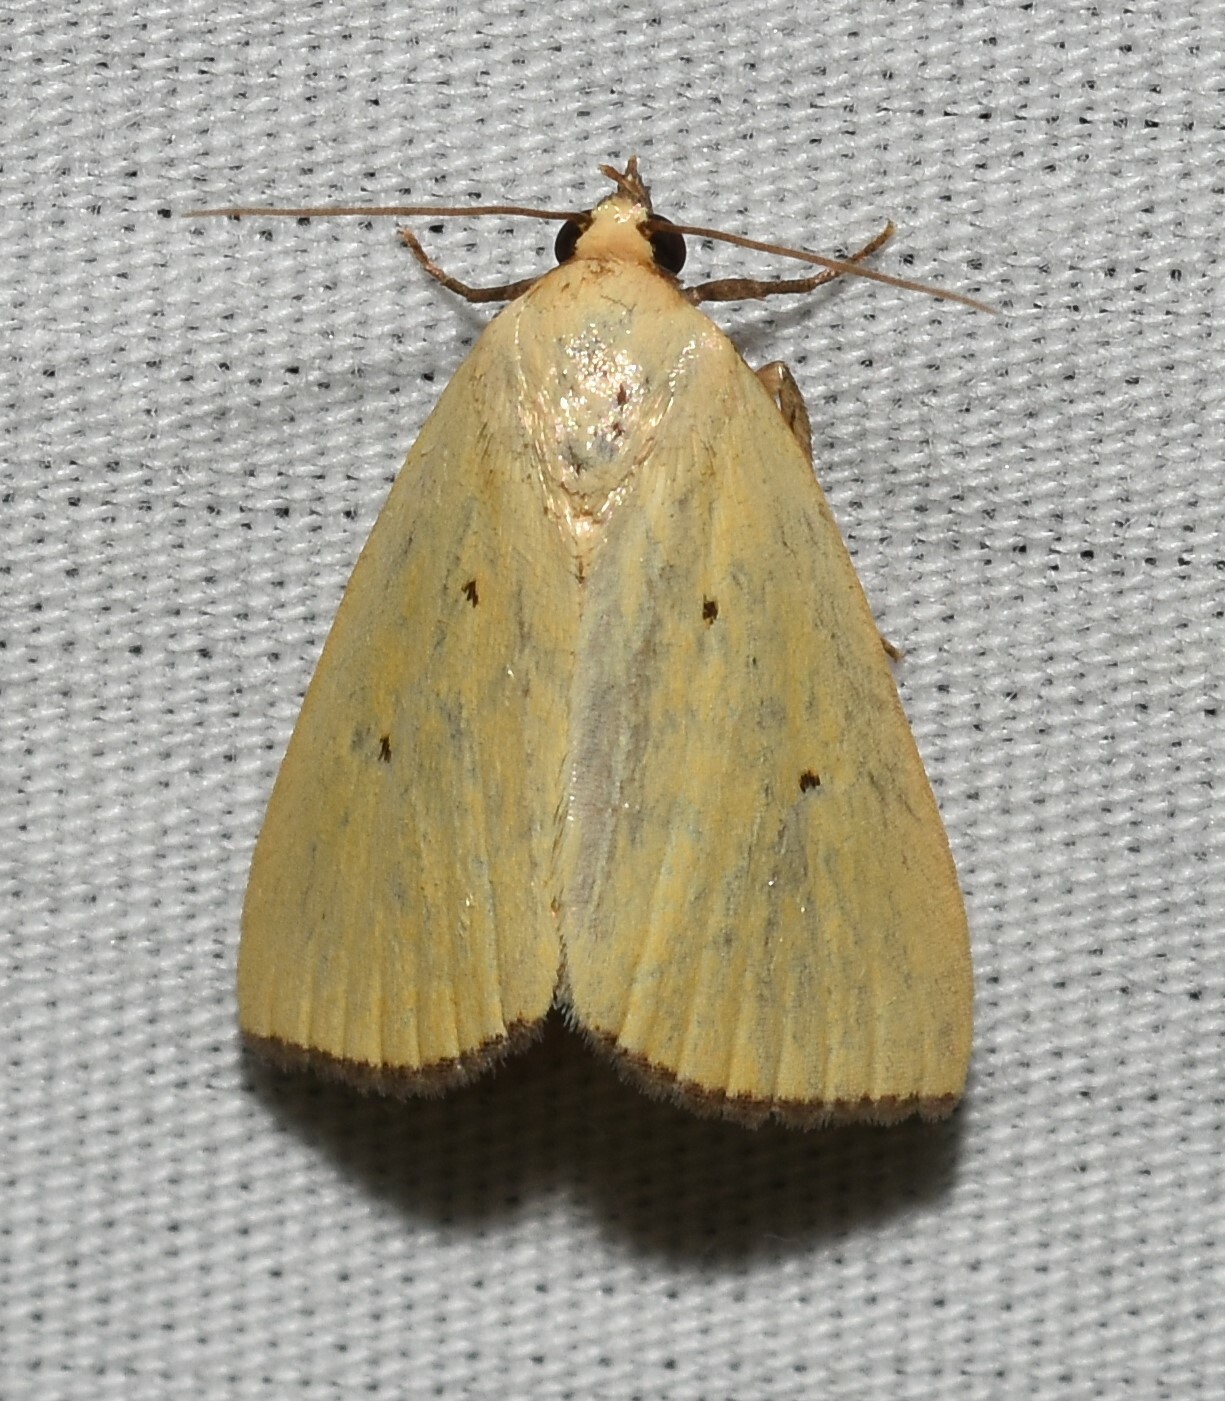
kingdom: Animalia
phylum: Arthropoda
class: Insecta
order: Lepidoptera
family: Noctuidae
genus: Marimatha
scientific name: Marimatha nigrofimbria
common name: Black-bordered lemon moth
